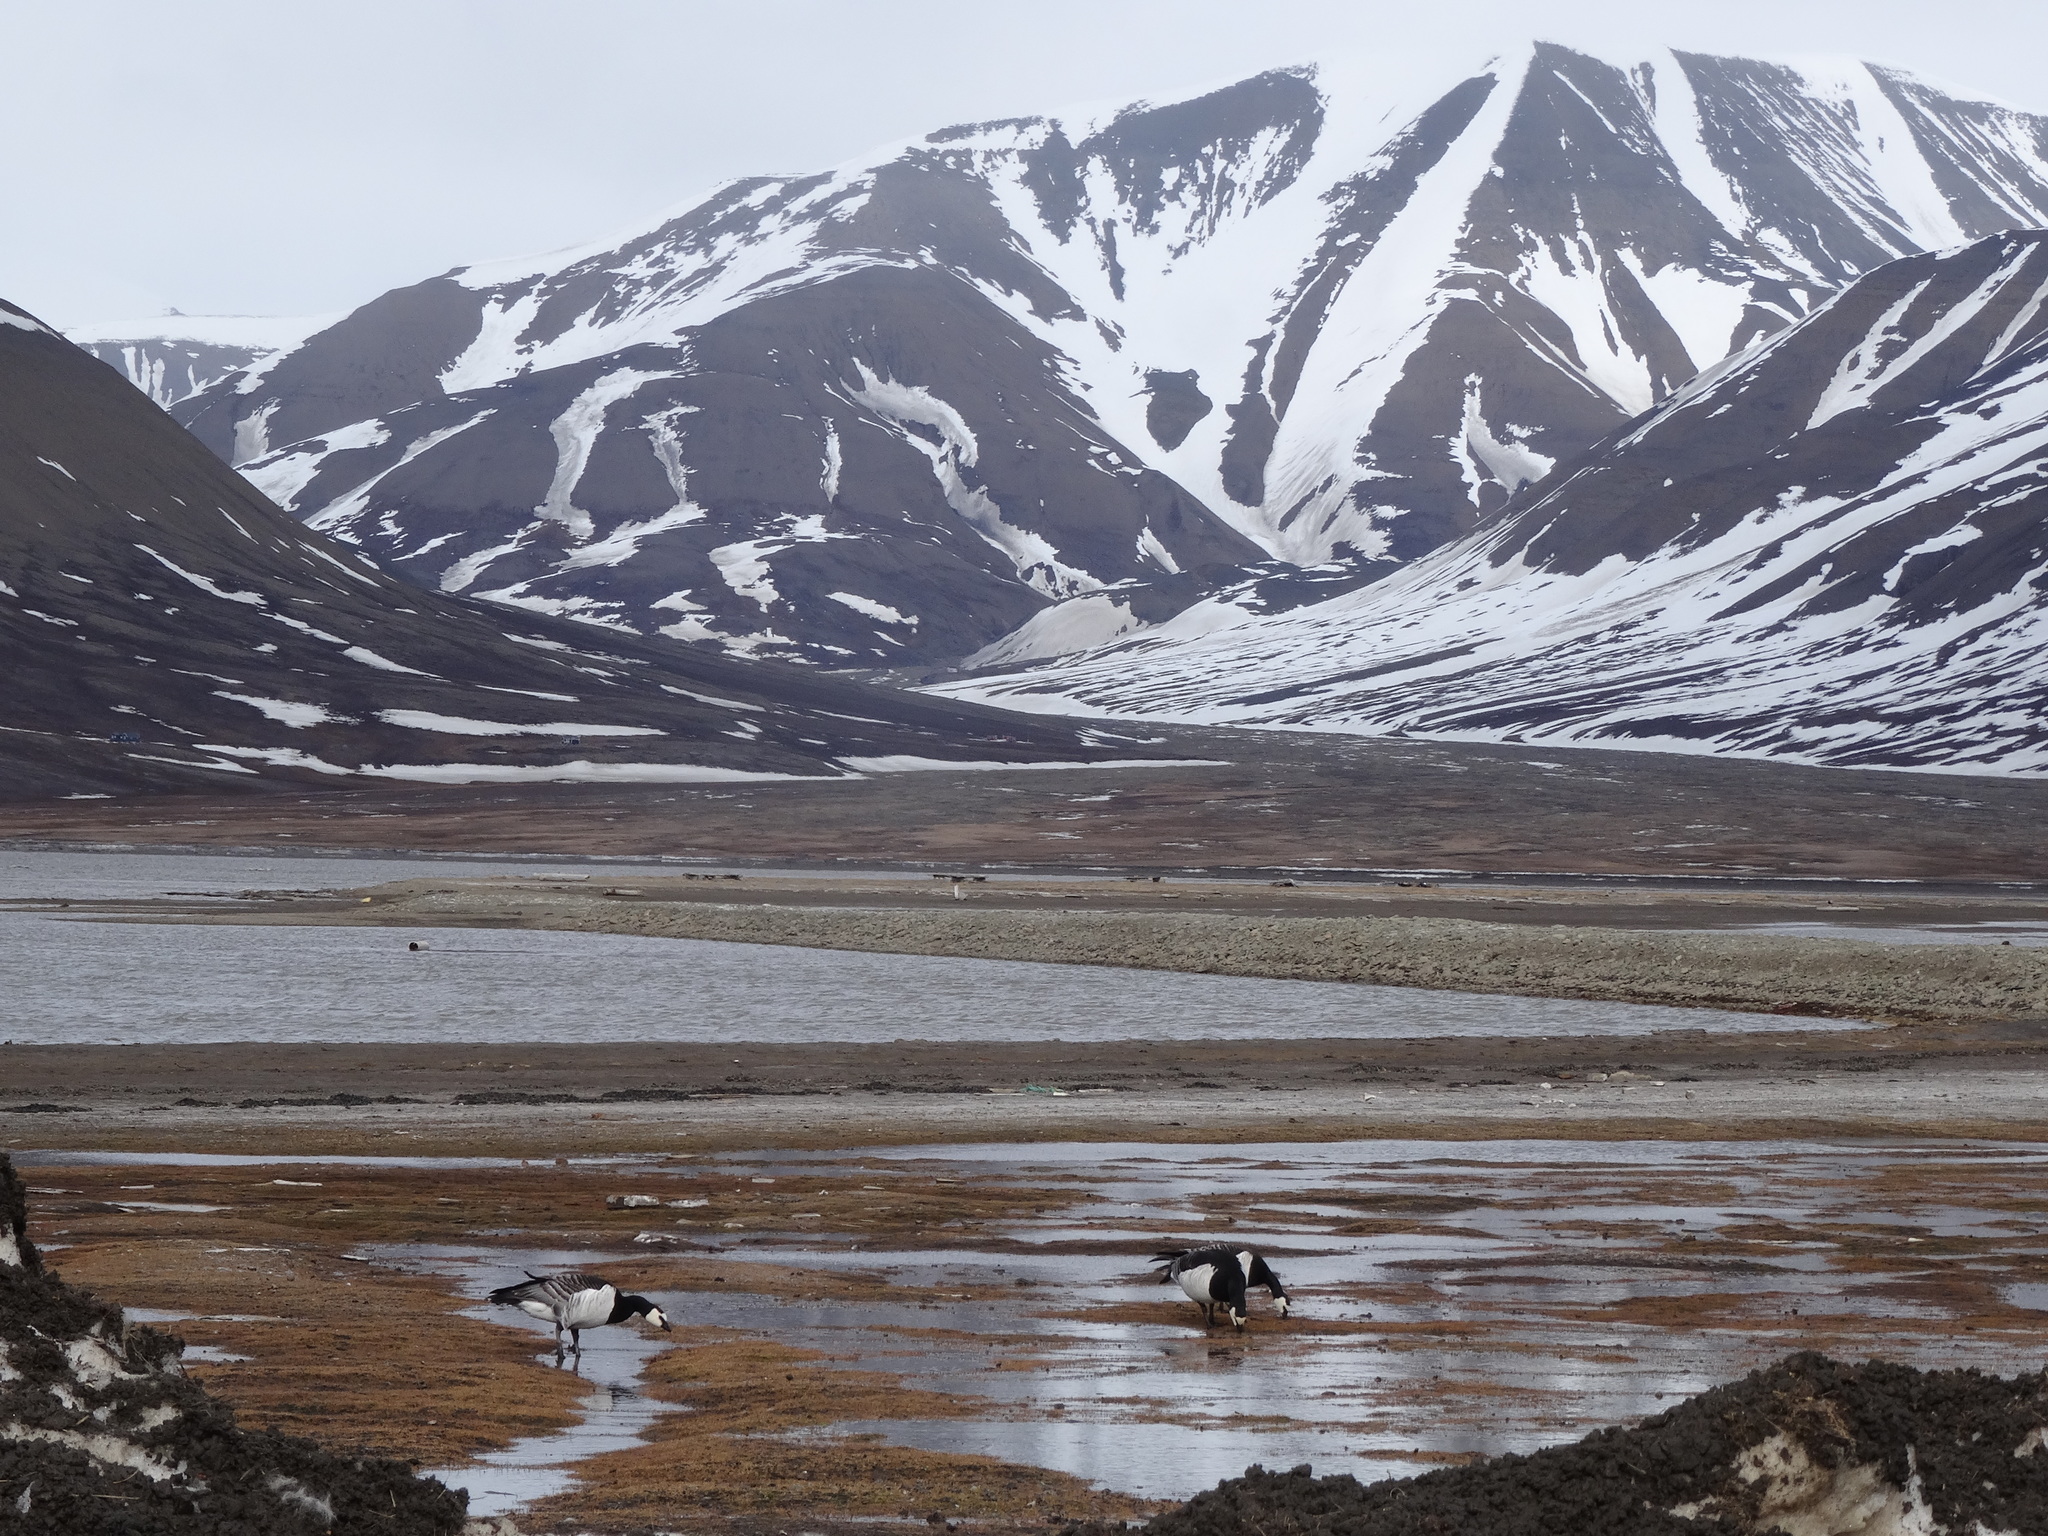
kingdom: Animalia
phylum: Chordata
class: Aves
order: Anseriformes
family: Anatidae
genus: Branta
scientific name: Branta leucopsis
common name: Barnacle goose
